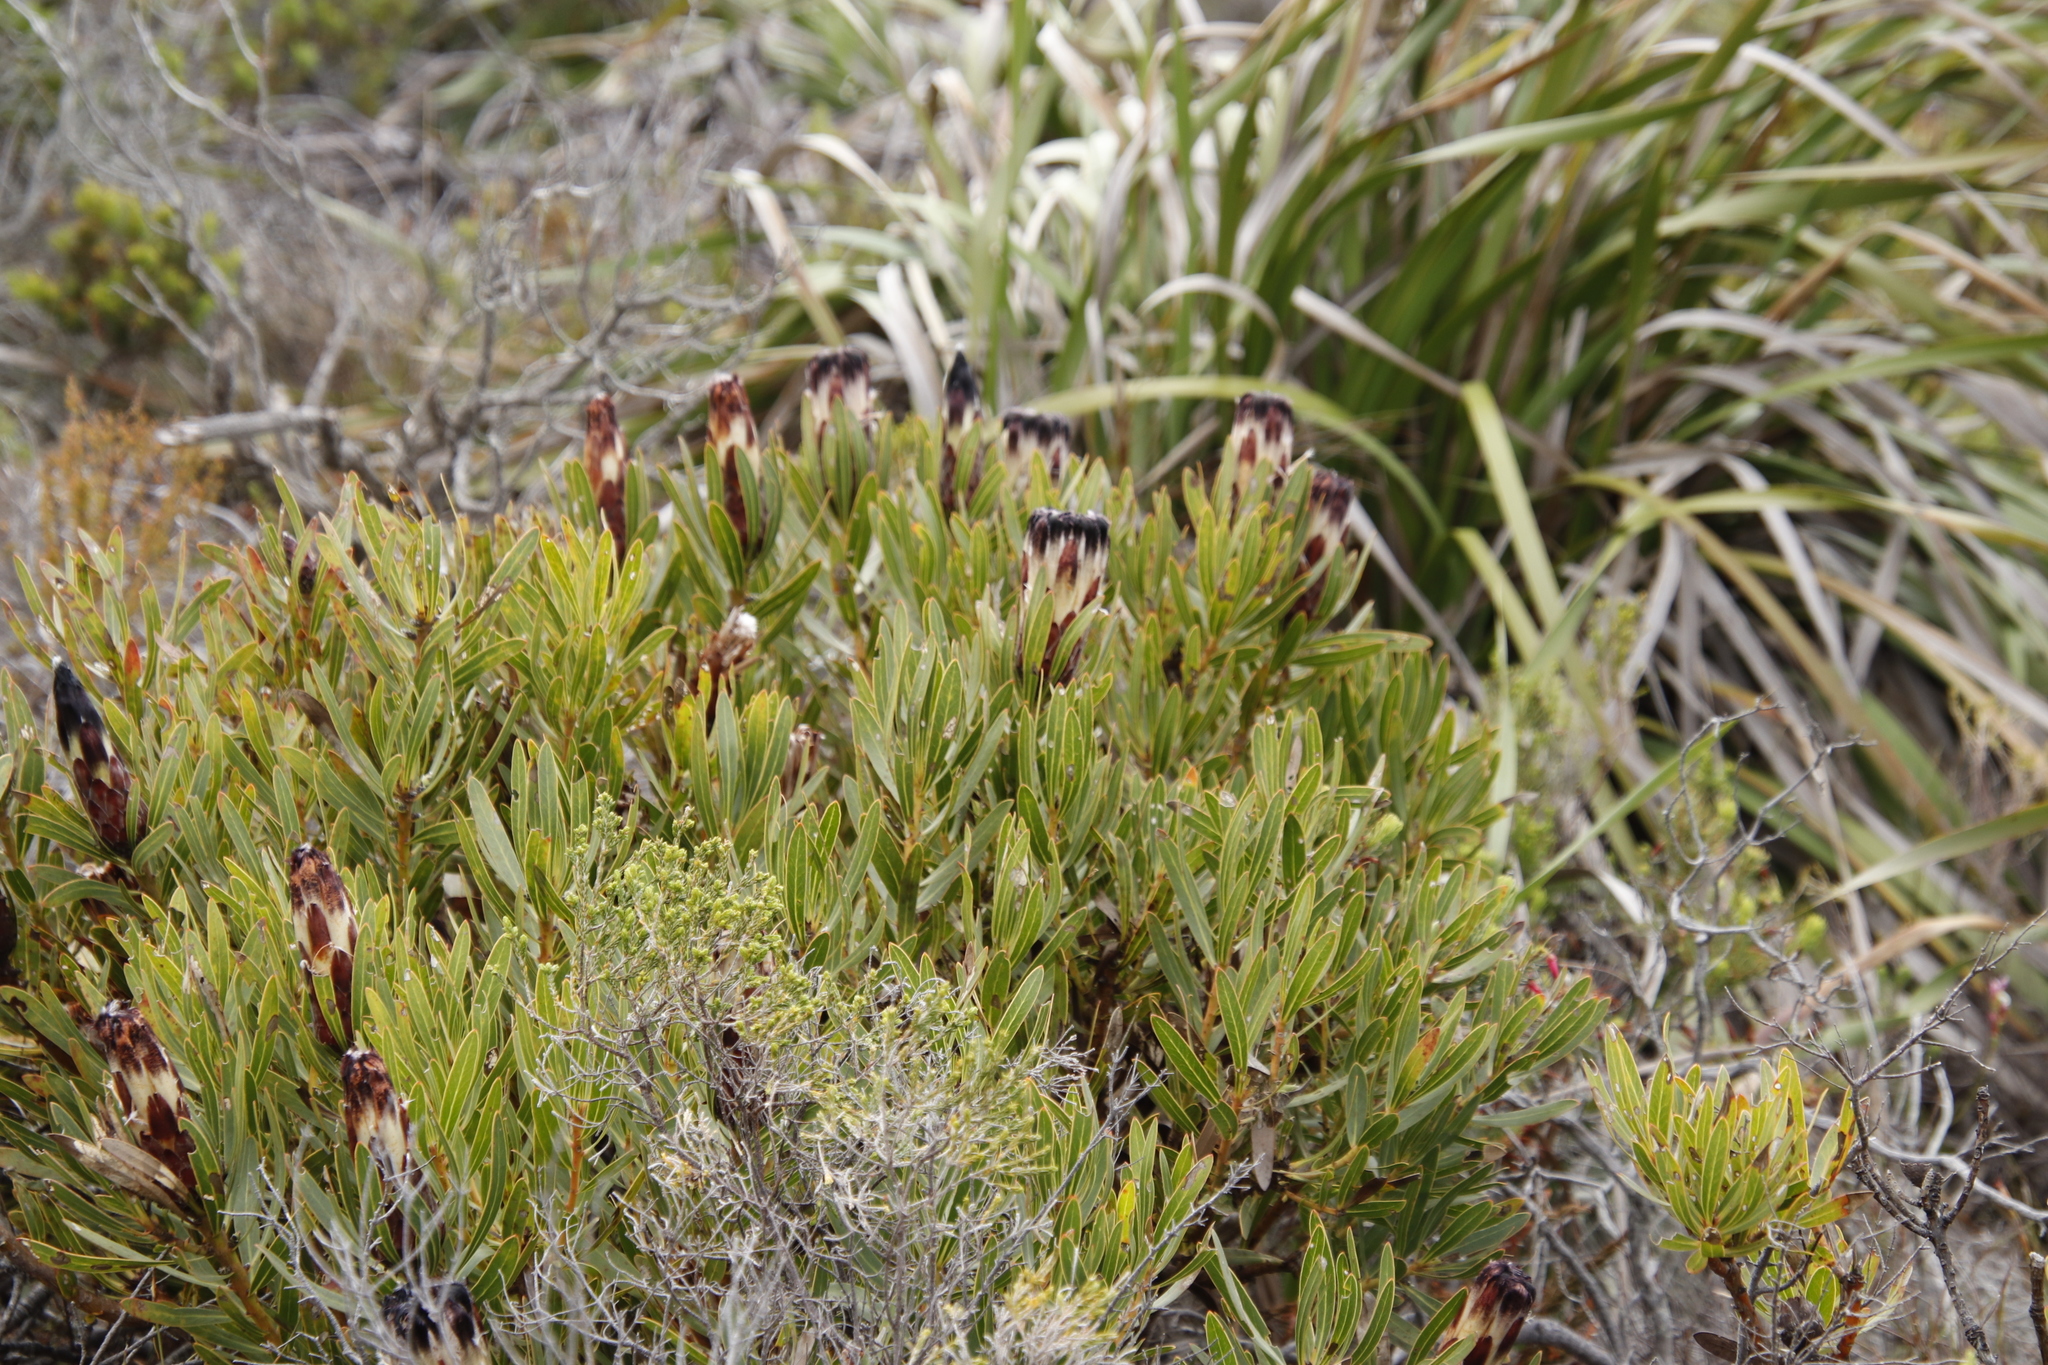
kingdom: Plantae
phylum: Tracheophyta
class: Magnoliopsida
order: Proteales
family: Proteaceae
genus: Protea
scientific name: Protea lepidocarpodendron
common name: Black-bearded protea
